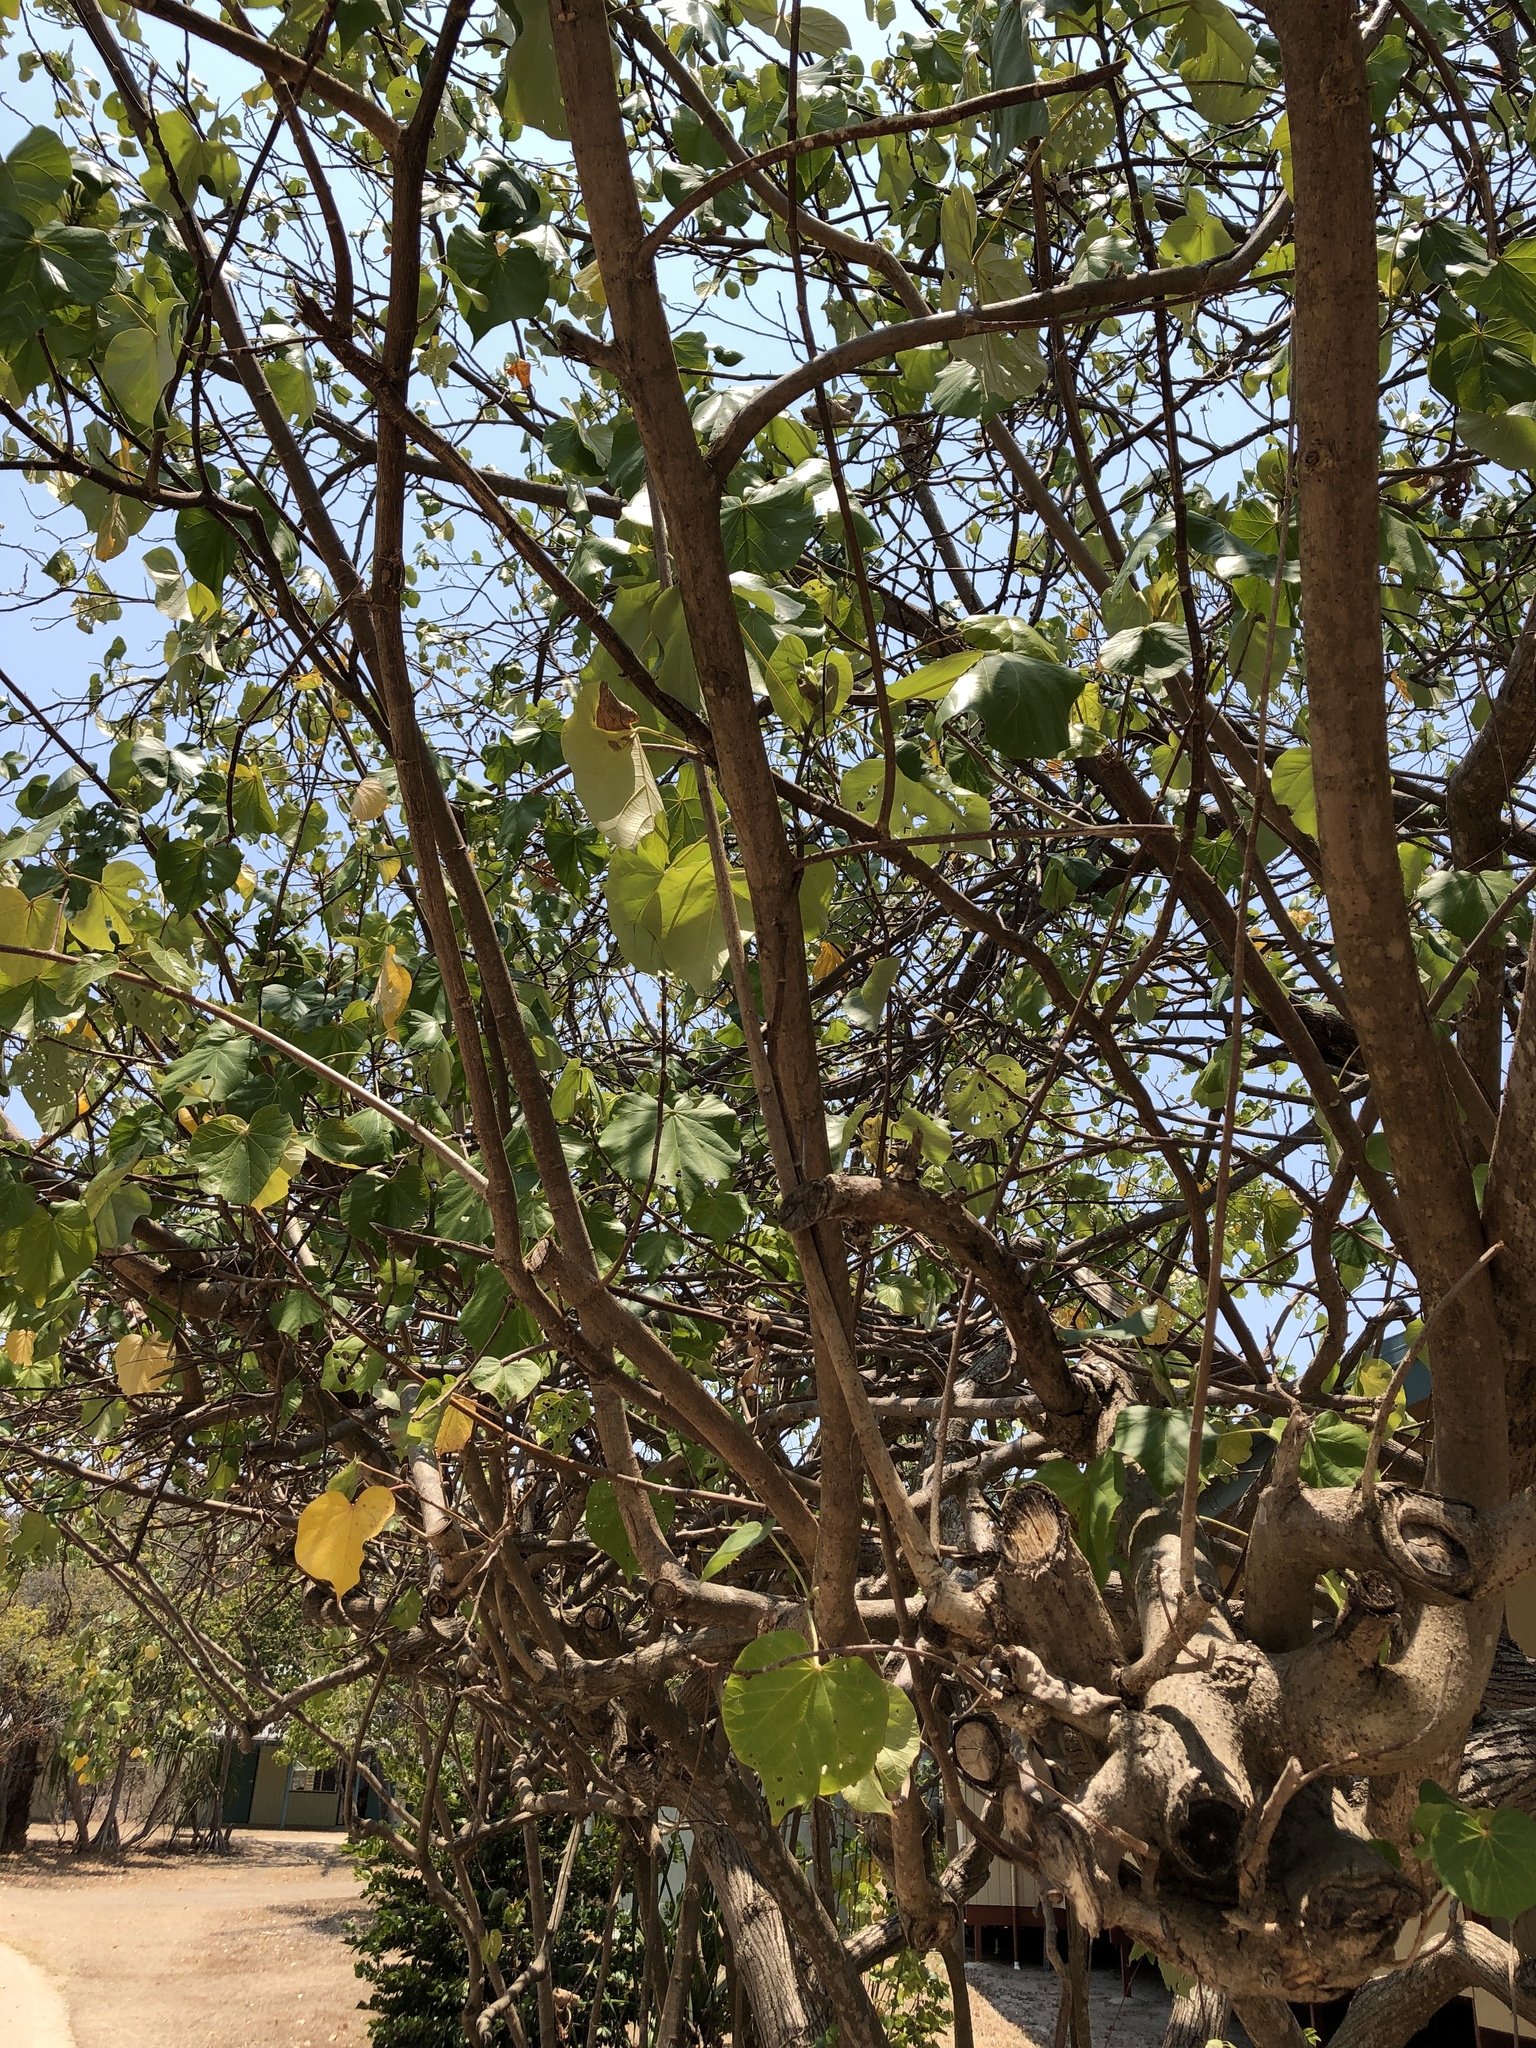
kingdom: Plantae
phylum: Tracheophyta
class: Magnoliopsida
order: Malvales
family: Malvaceae
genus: Talipariti
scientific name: Talipariti tiliaceum
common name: Sea hibiscus
